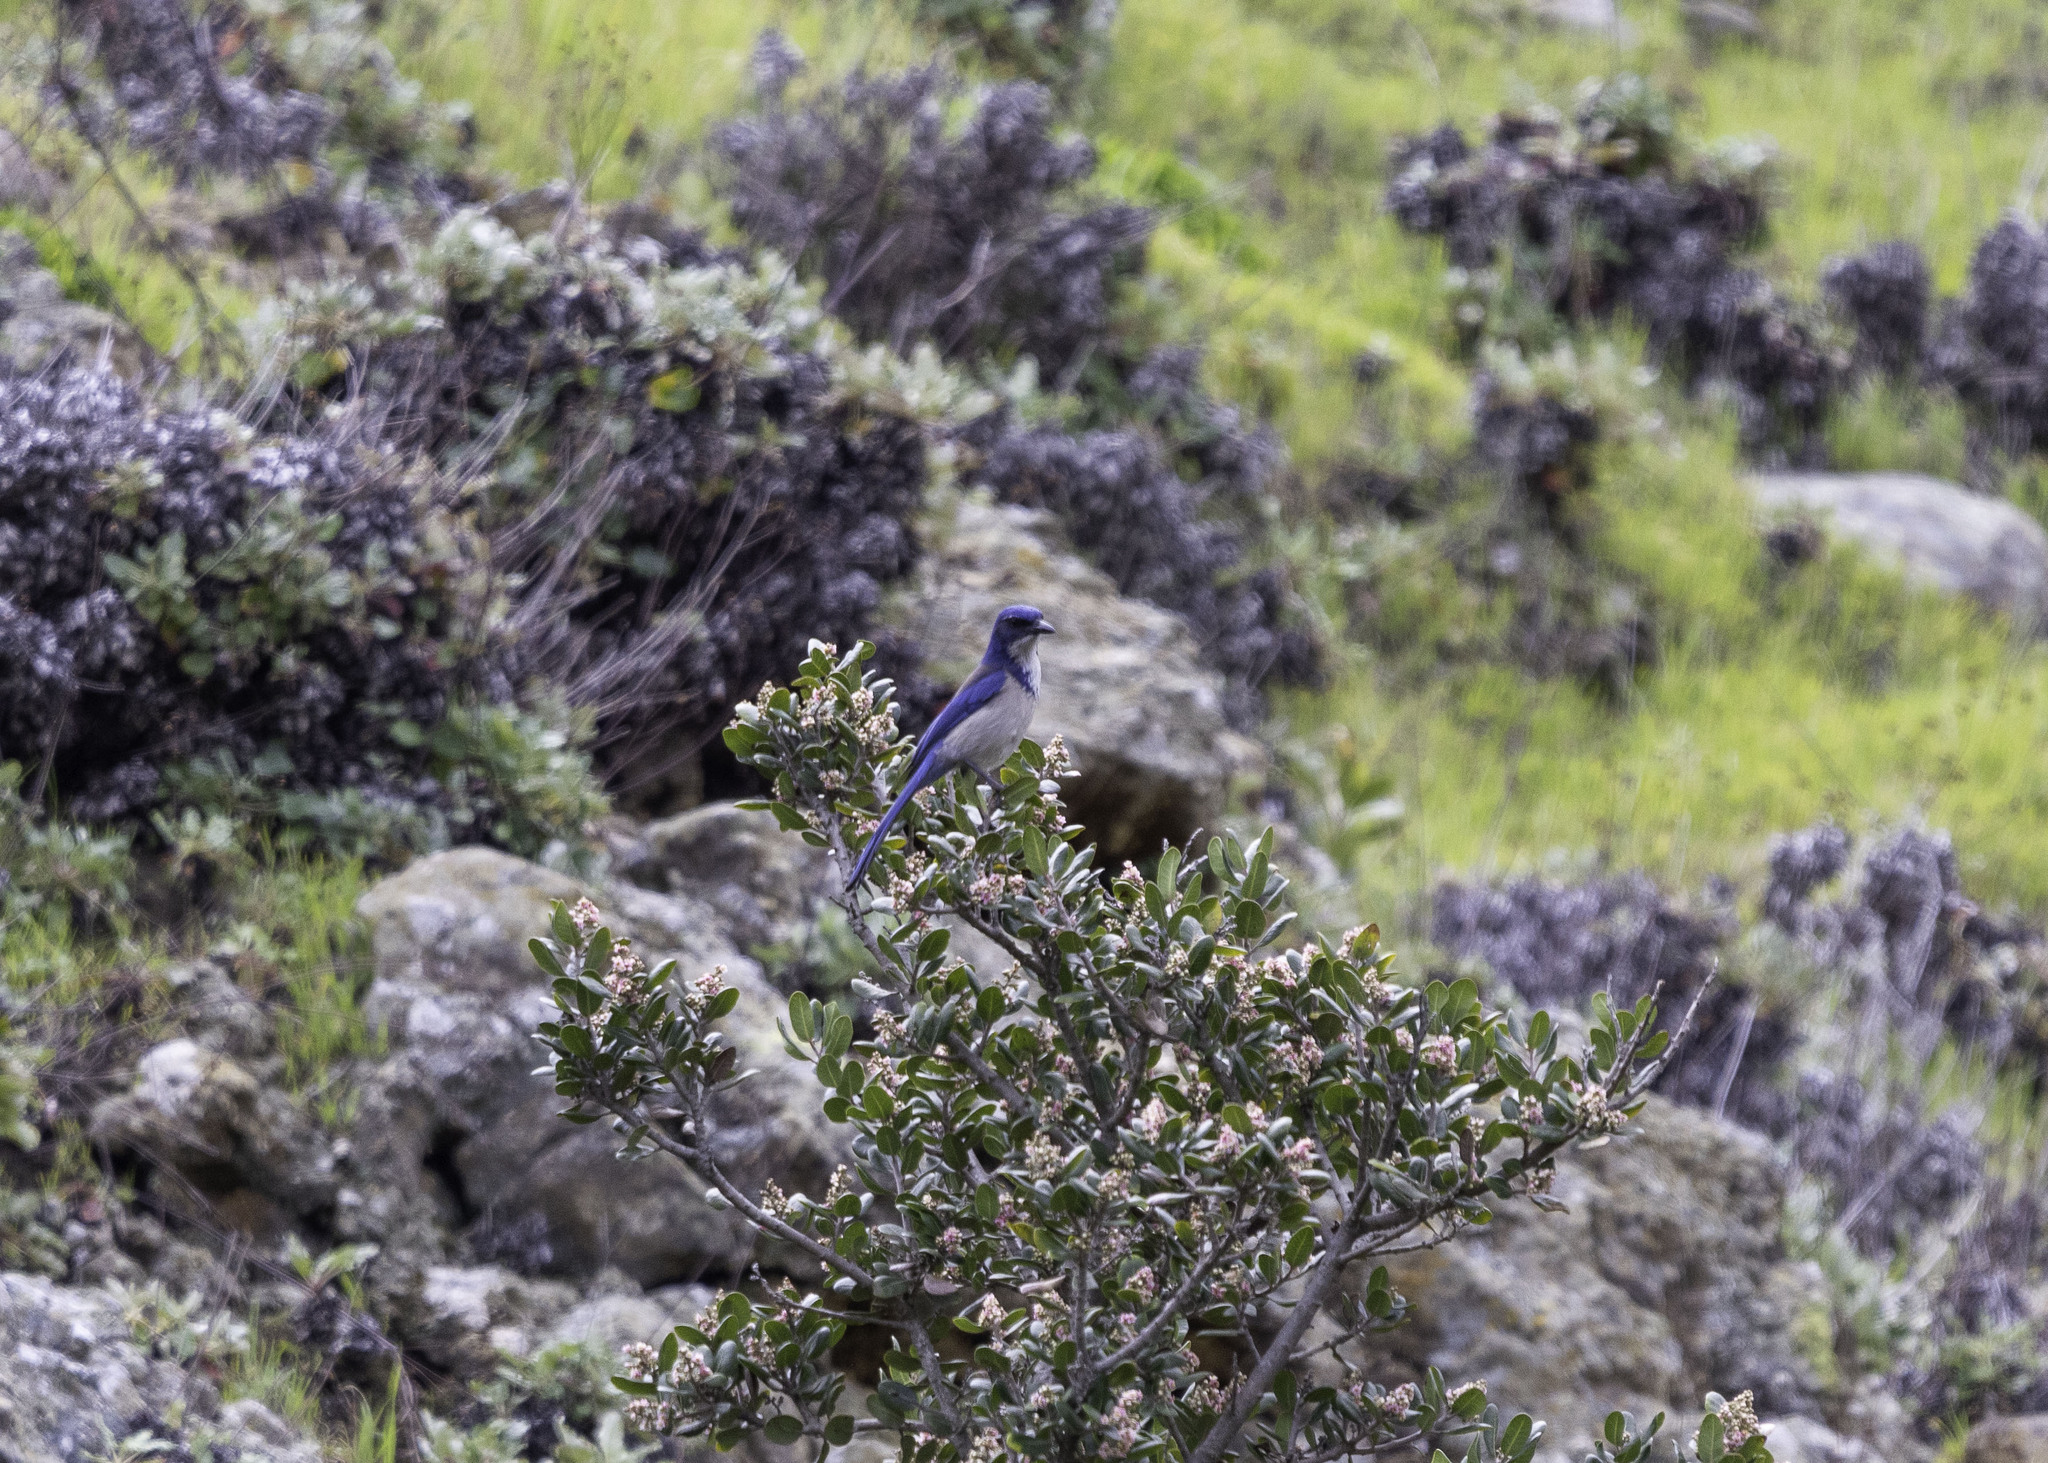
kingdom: Animalia
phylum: Chordata
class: Aves
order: Passeriformes
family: Corvidae
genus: Aphelocoma
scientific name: Aphelocoma insularis
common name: Island scrub-jay
